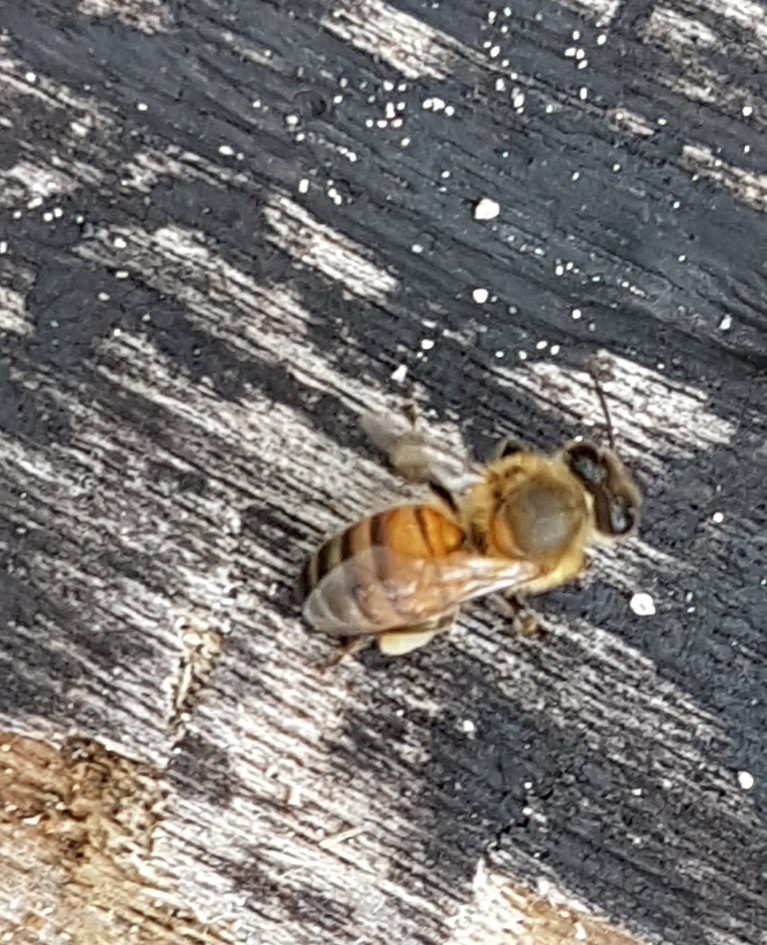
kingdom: Animalia
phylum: Arthropoda
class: Insecta
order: Hymenoptera
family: Apidae
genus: Apis
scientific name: Apis mellifera
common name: Honey bee
